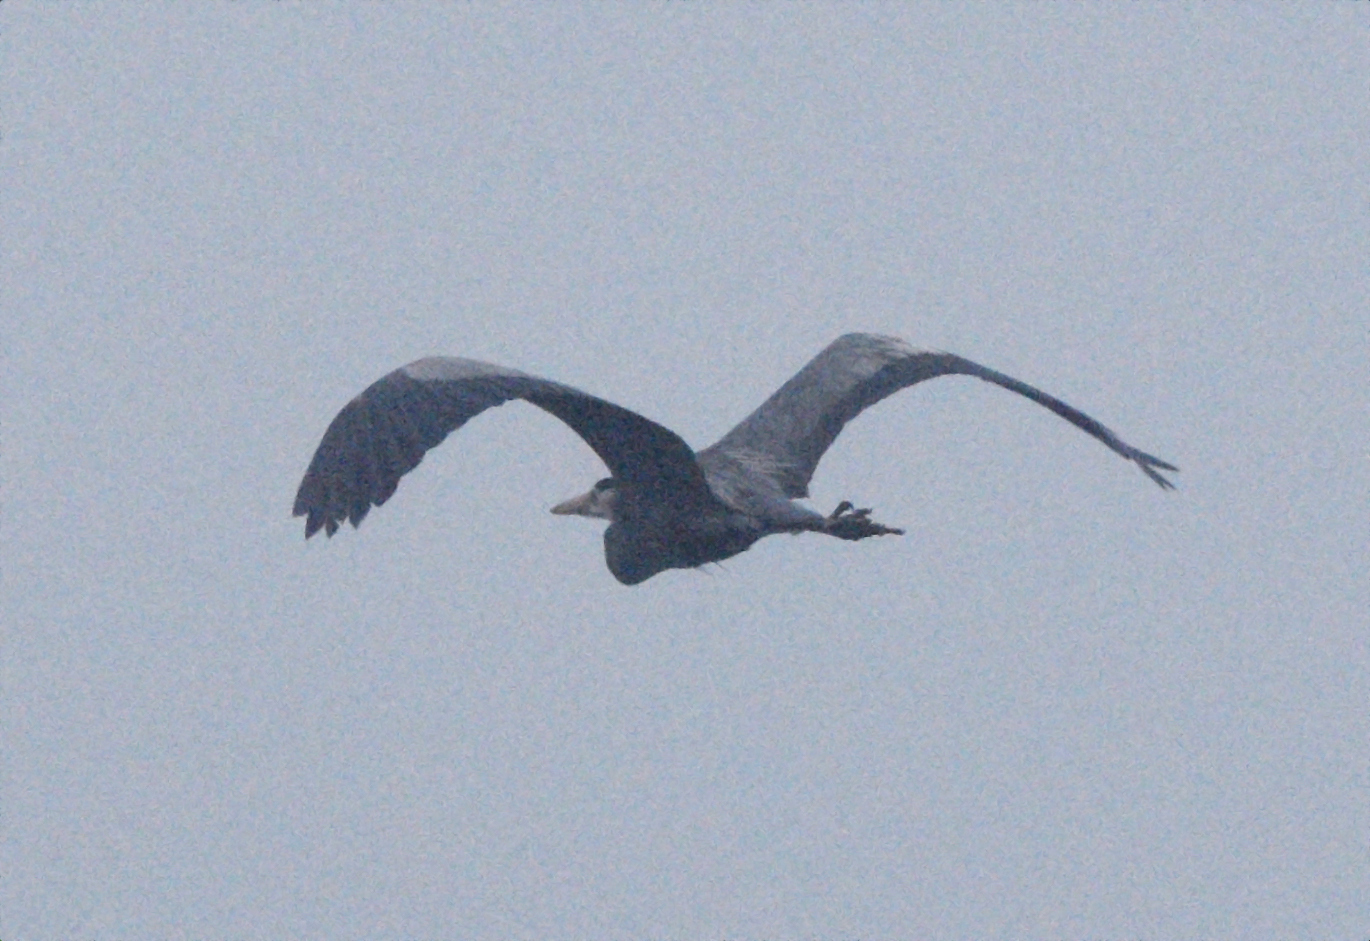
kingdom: Animalia
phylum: Chordata
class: Aves
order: Pelecaniformes
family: Ardeidae
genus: Ardea
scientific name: Ardea herodias
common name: Great blue heron
